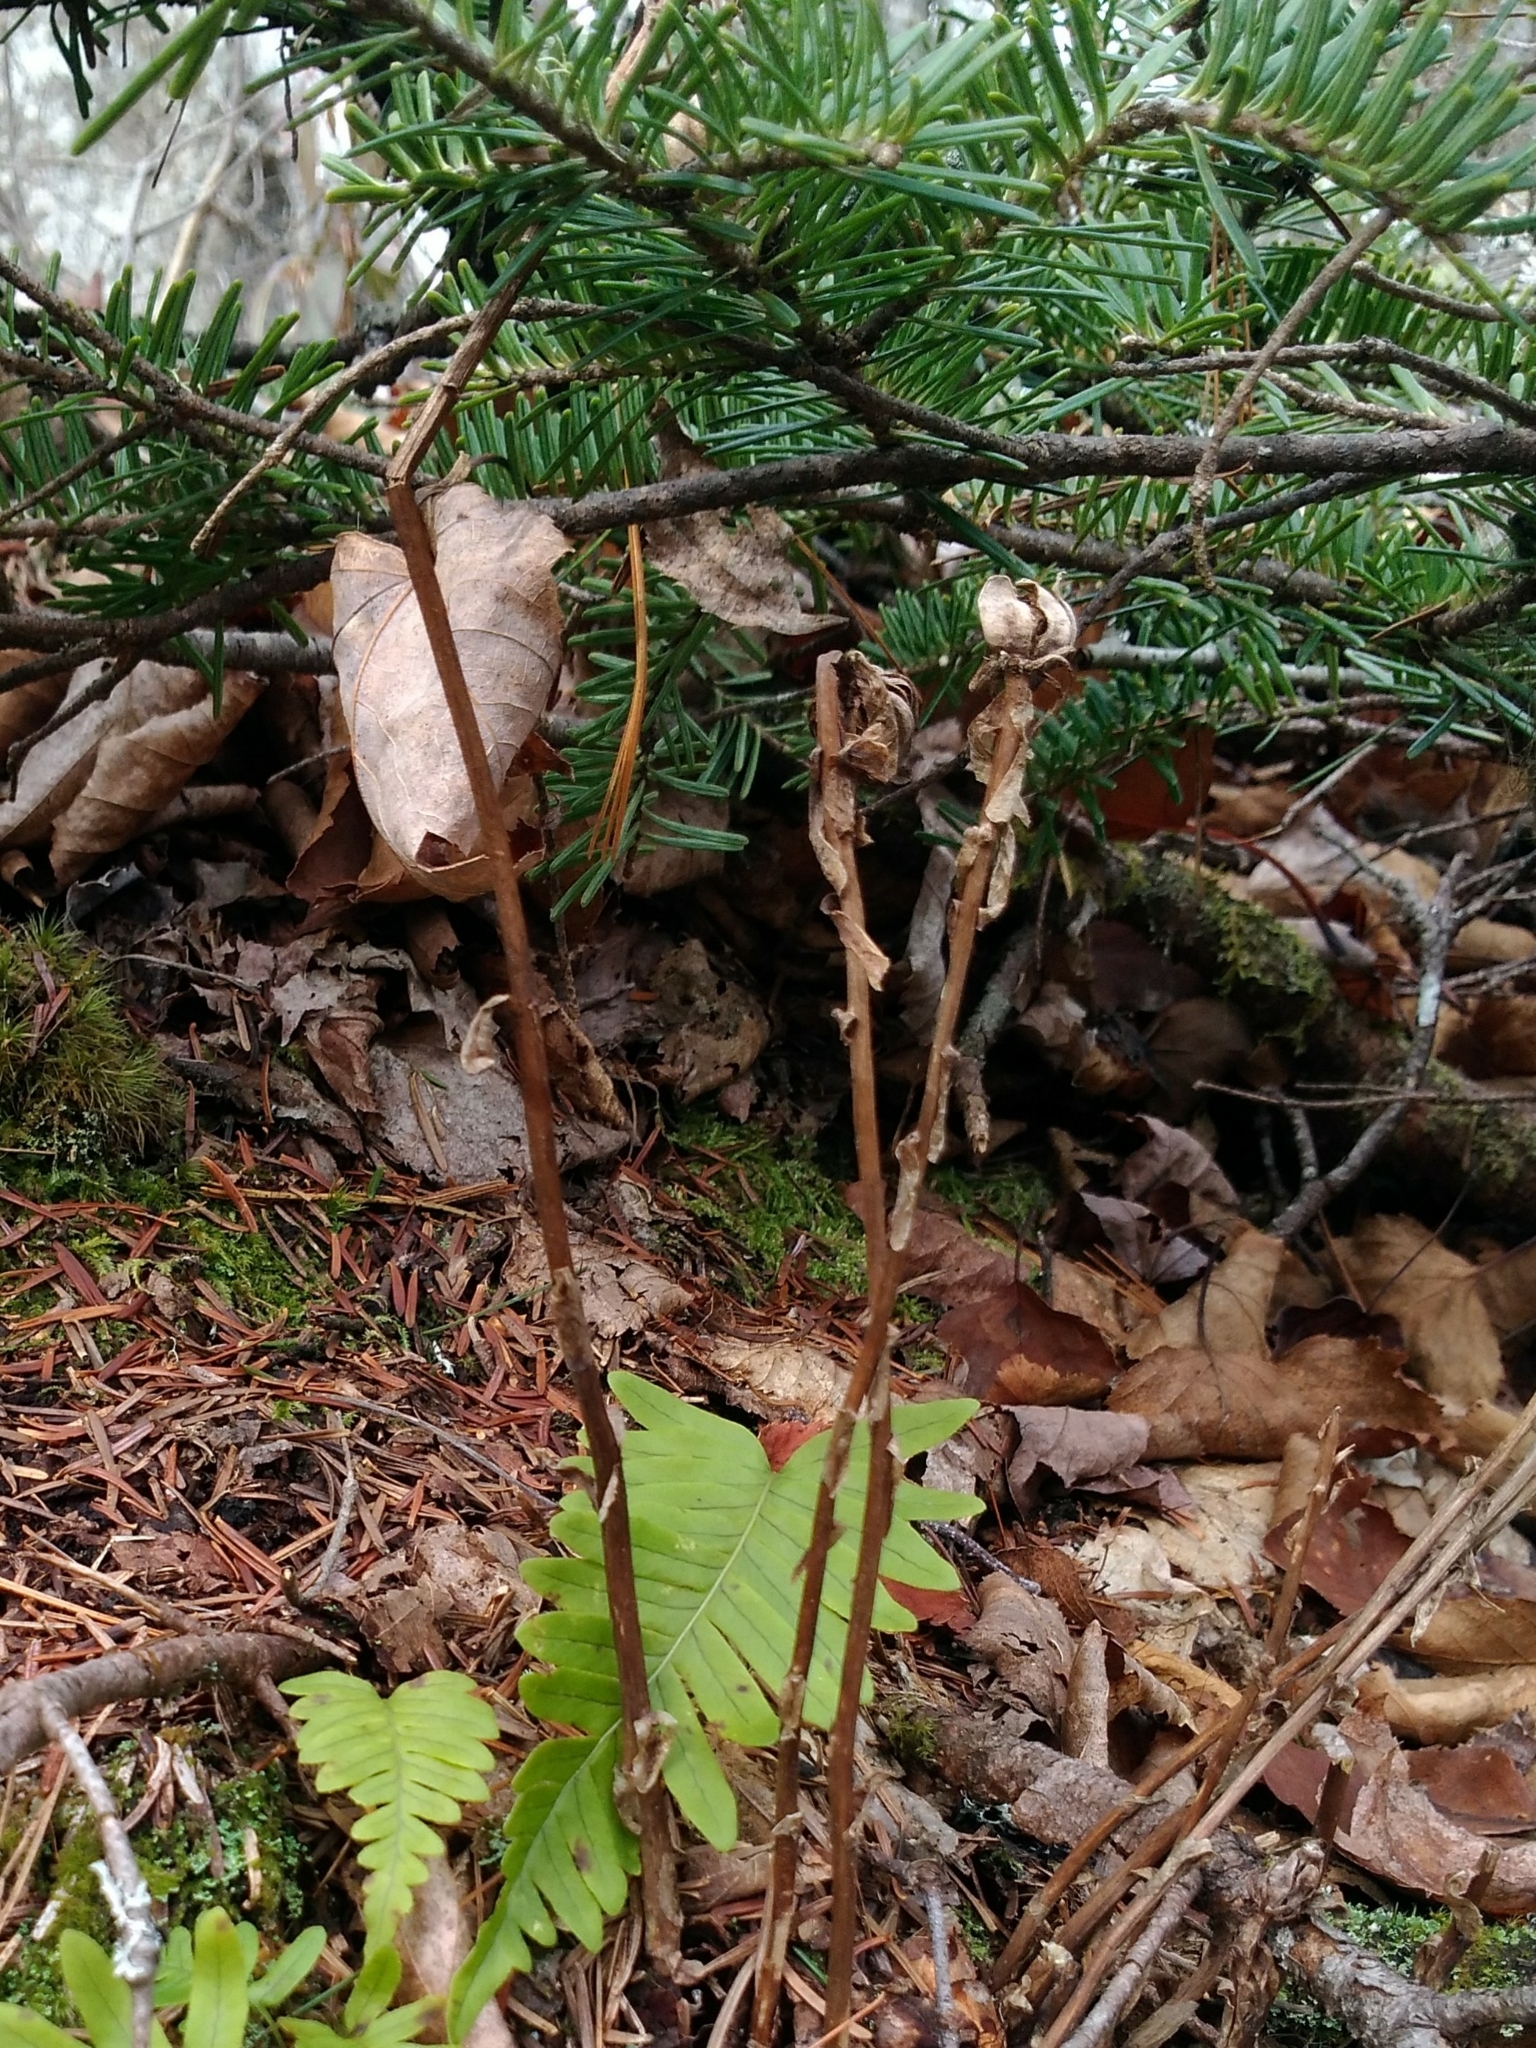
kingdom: Plantae
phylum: Tracheophyta
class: Magnoliopsida
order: Ericales
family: Ericaceae
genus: Monotropa
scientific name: Monotropa uniflora
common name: Convulsion root
